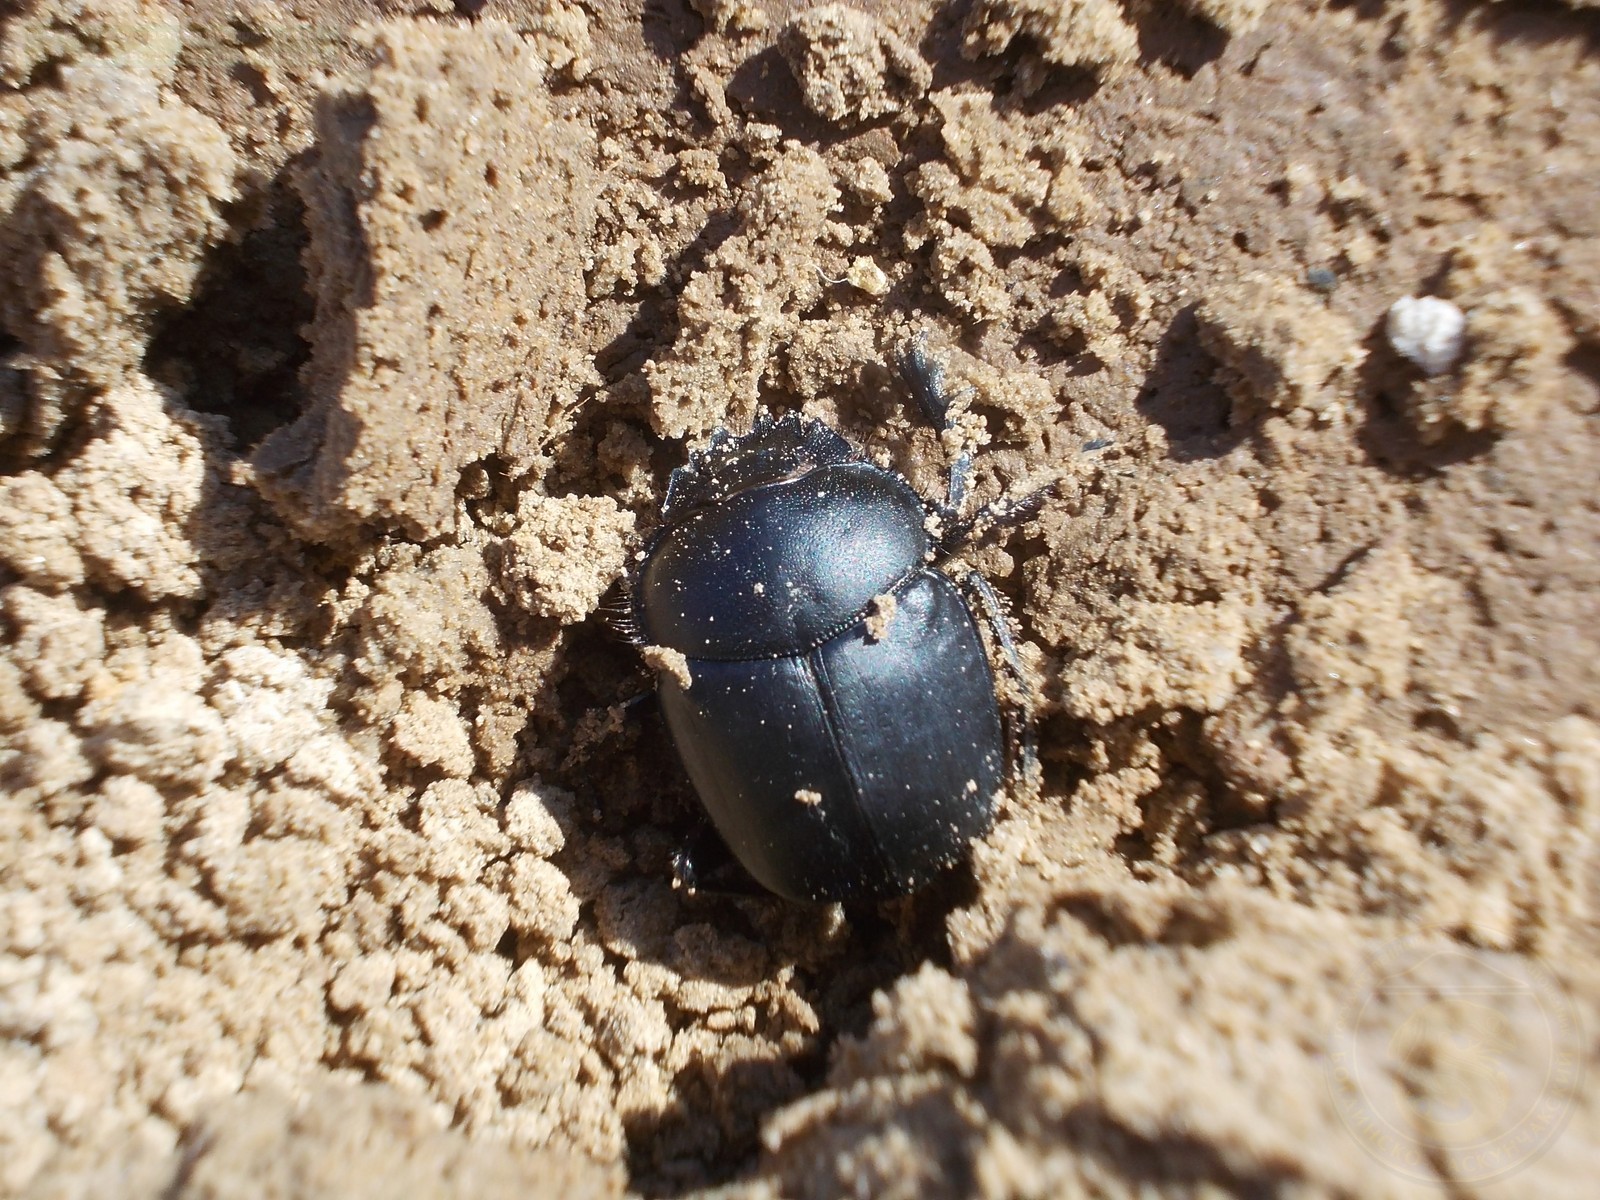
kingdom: Animalia
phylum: Arthropoda
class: Insecta
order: Coleoptera
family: Scarabaeidae
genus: Scarabaeus
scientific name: Scarabaeus typhon
